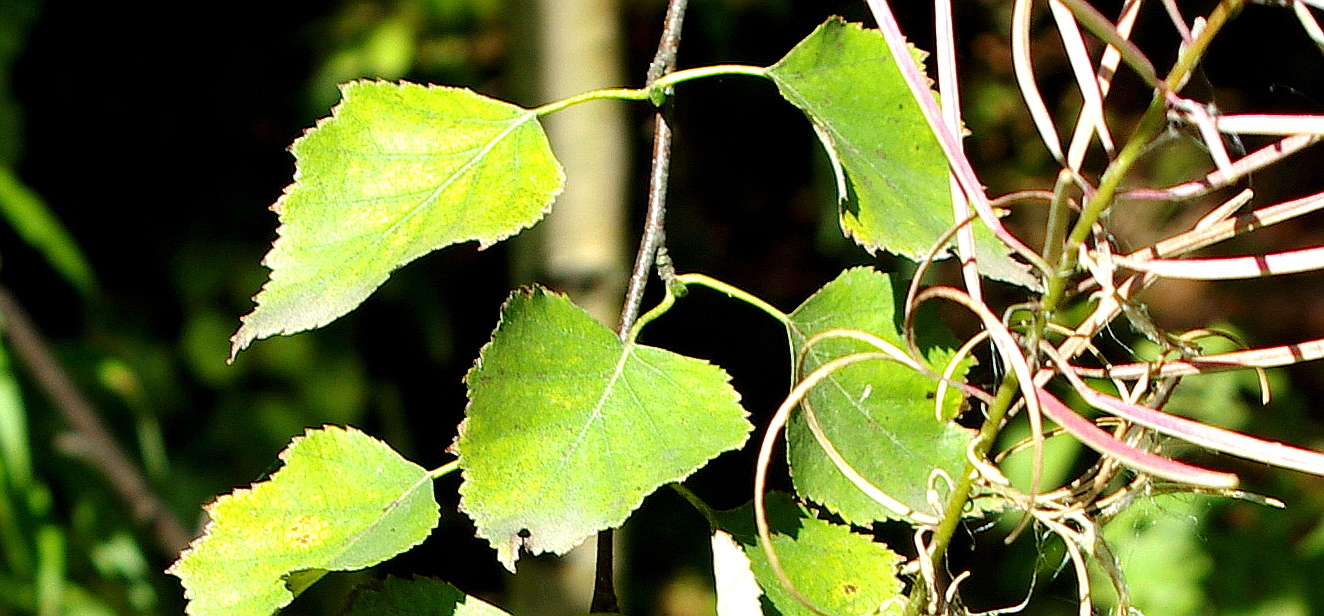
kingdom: Plantae
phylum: Tracheophyta
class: Magnoliopsida
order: Fagales
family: Betulaceae
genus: Betula
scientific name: Betula pendula
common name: Silver birch
